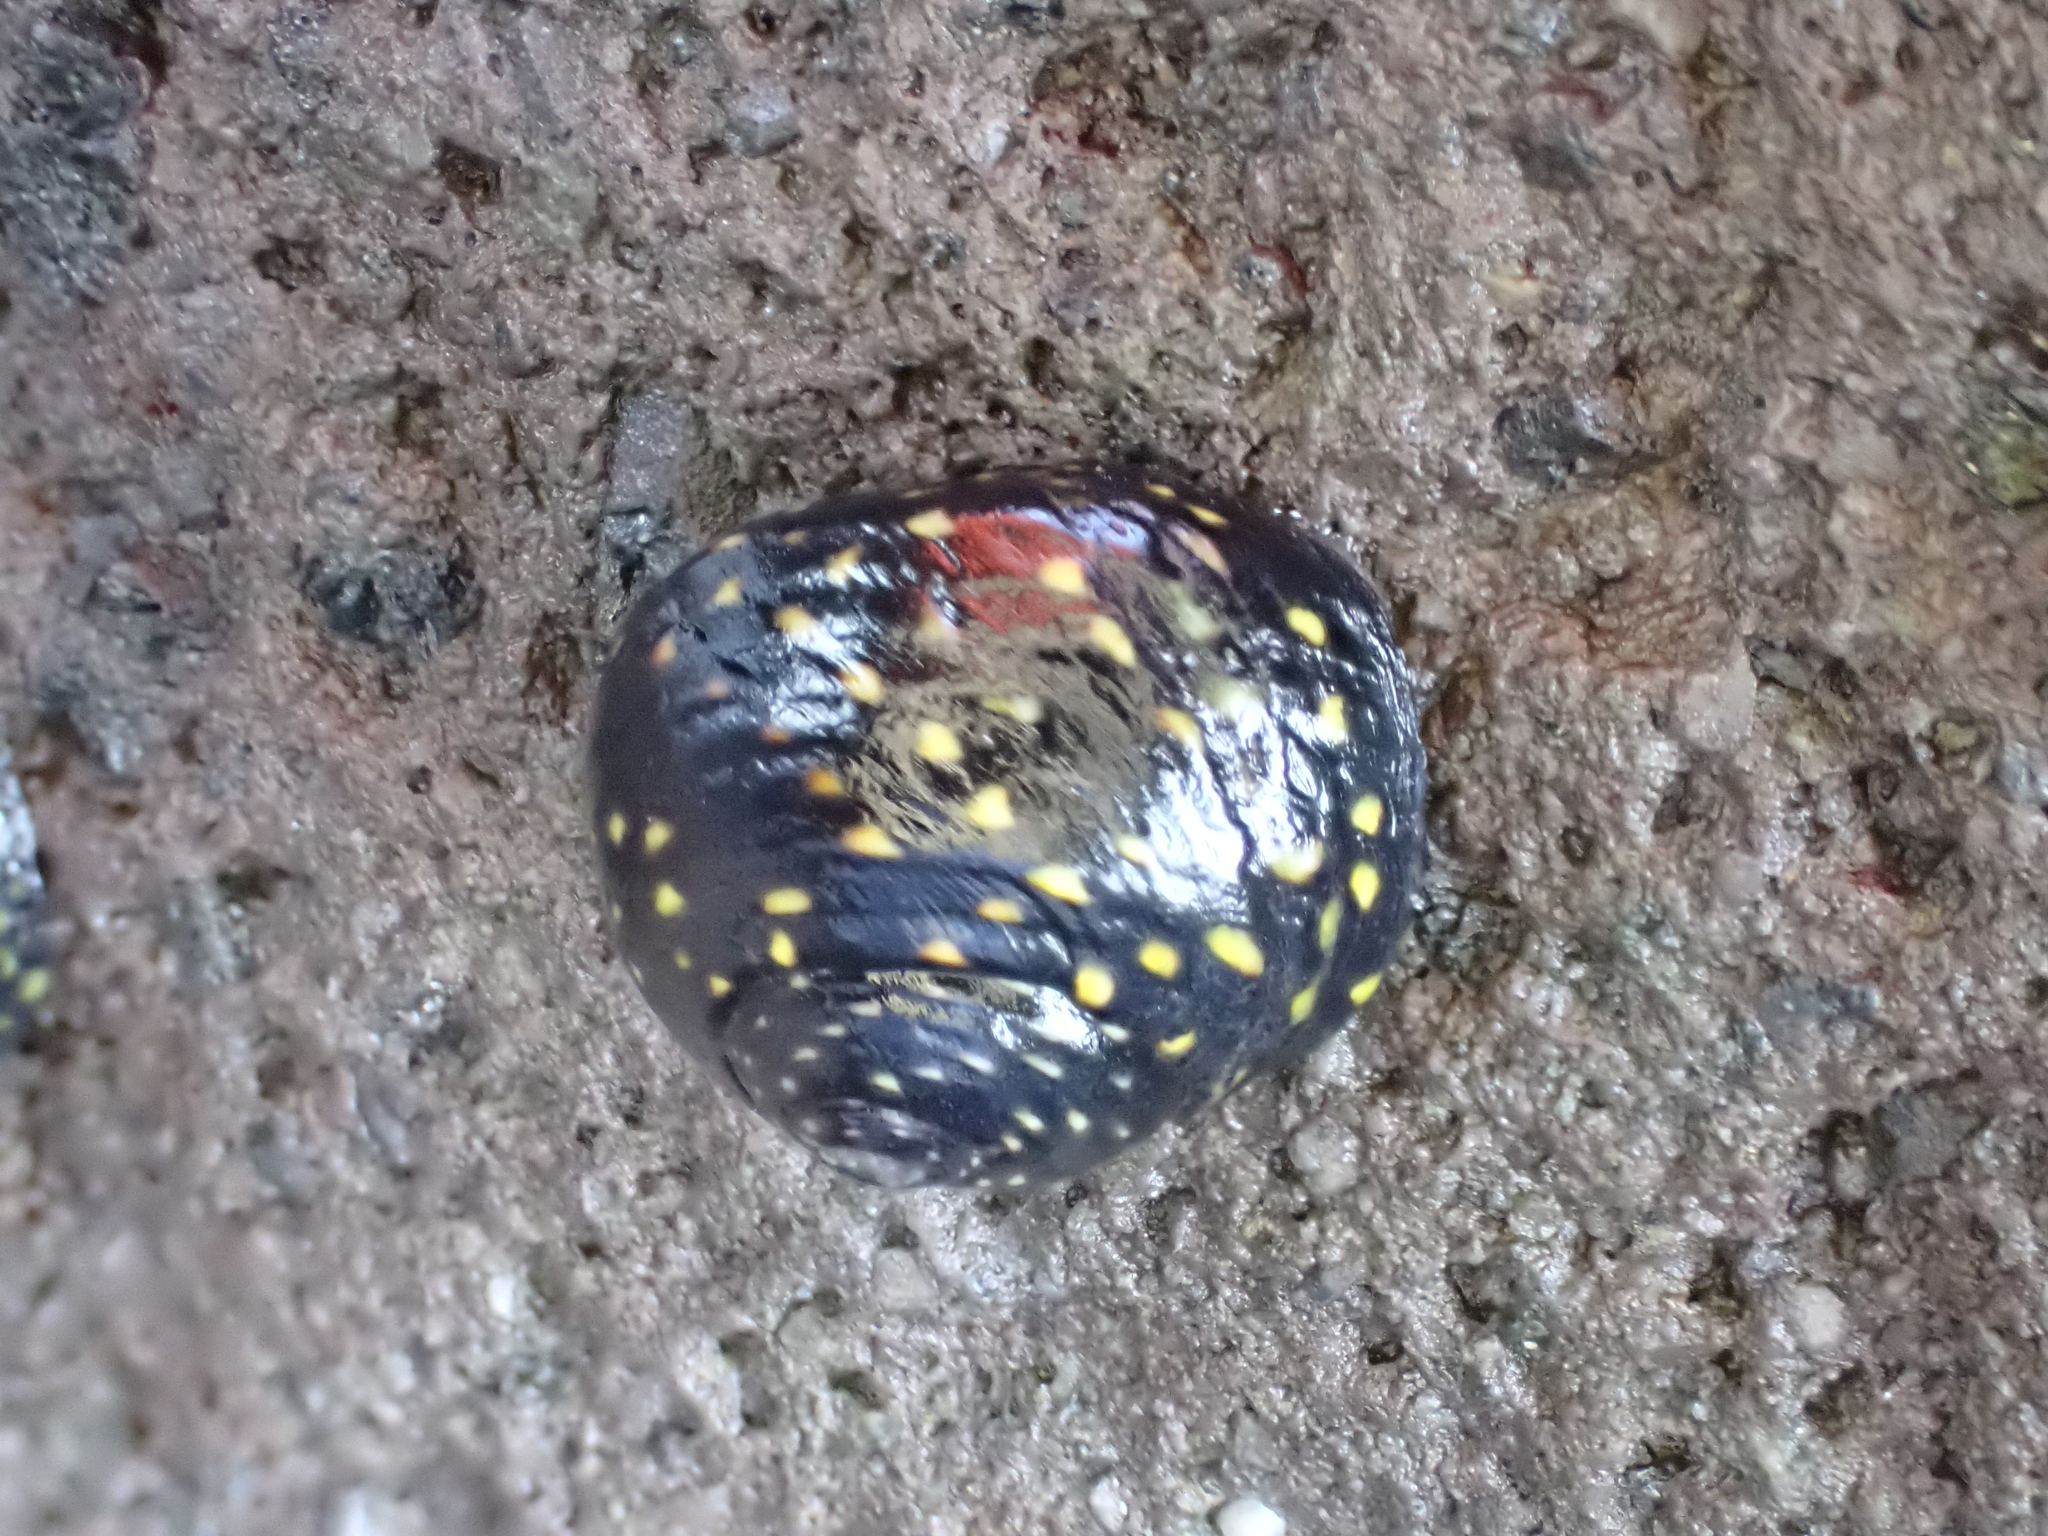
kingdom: Animalia
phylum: Mollusca
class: Gastropoda
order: Trochida
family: Trochidae
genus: Diloma
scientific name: Diloma aridum
